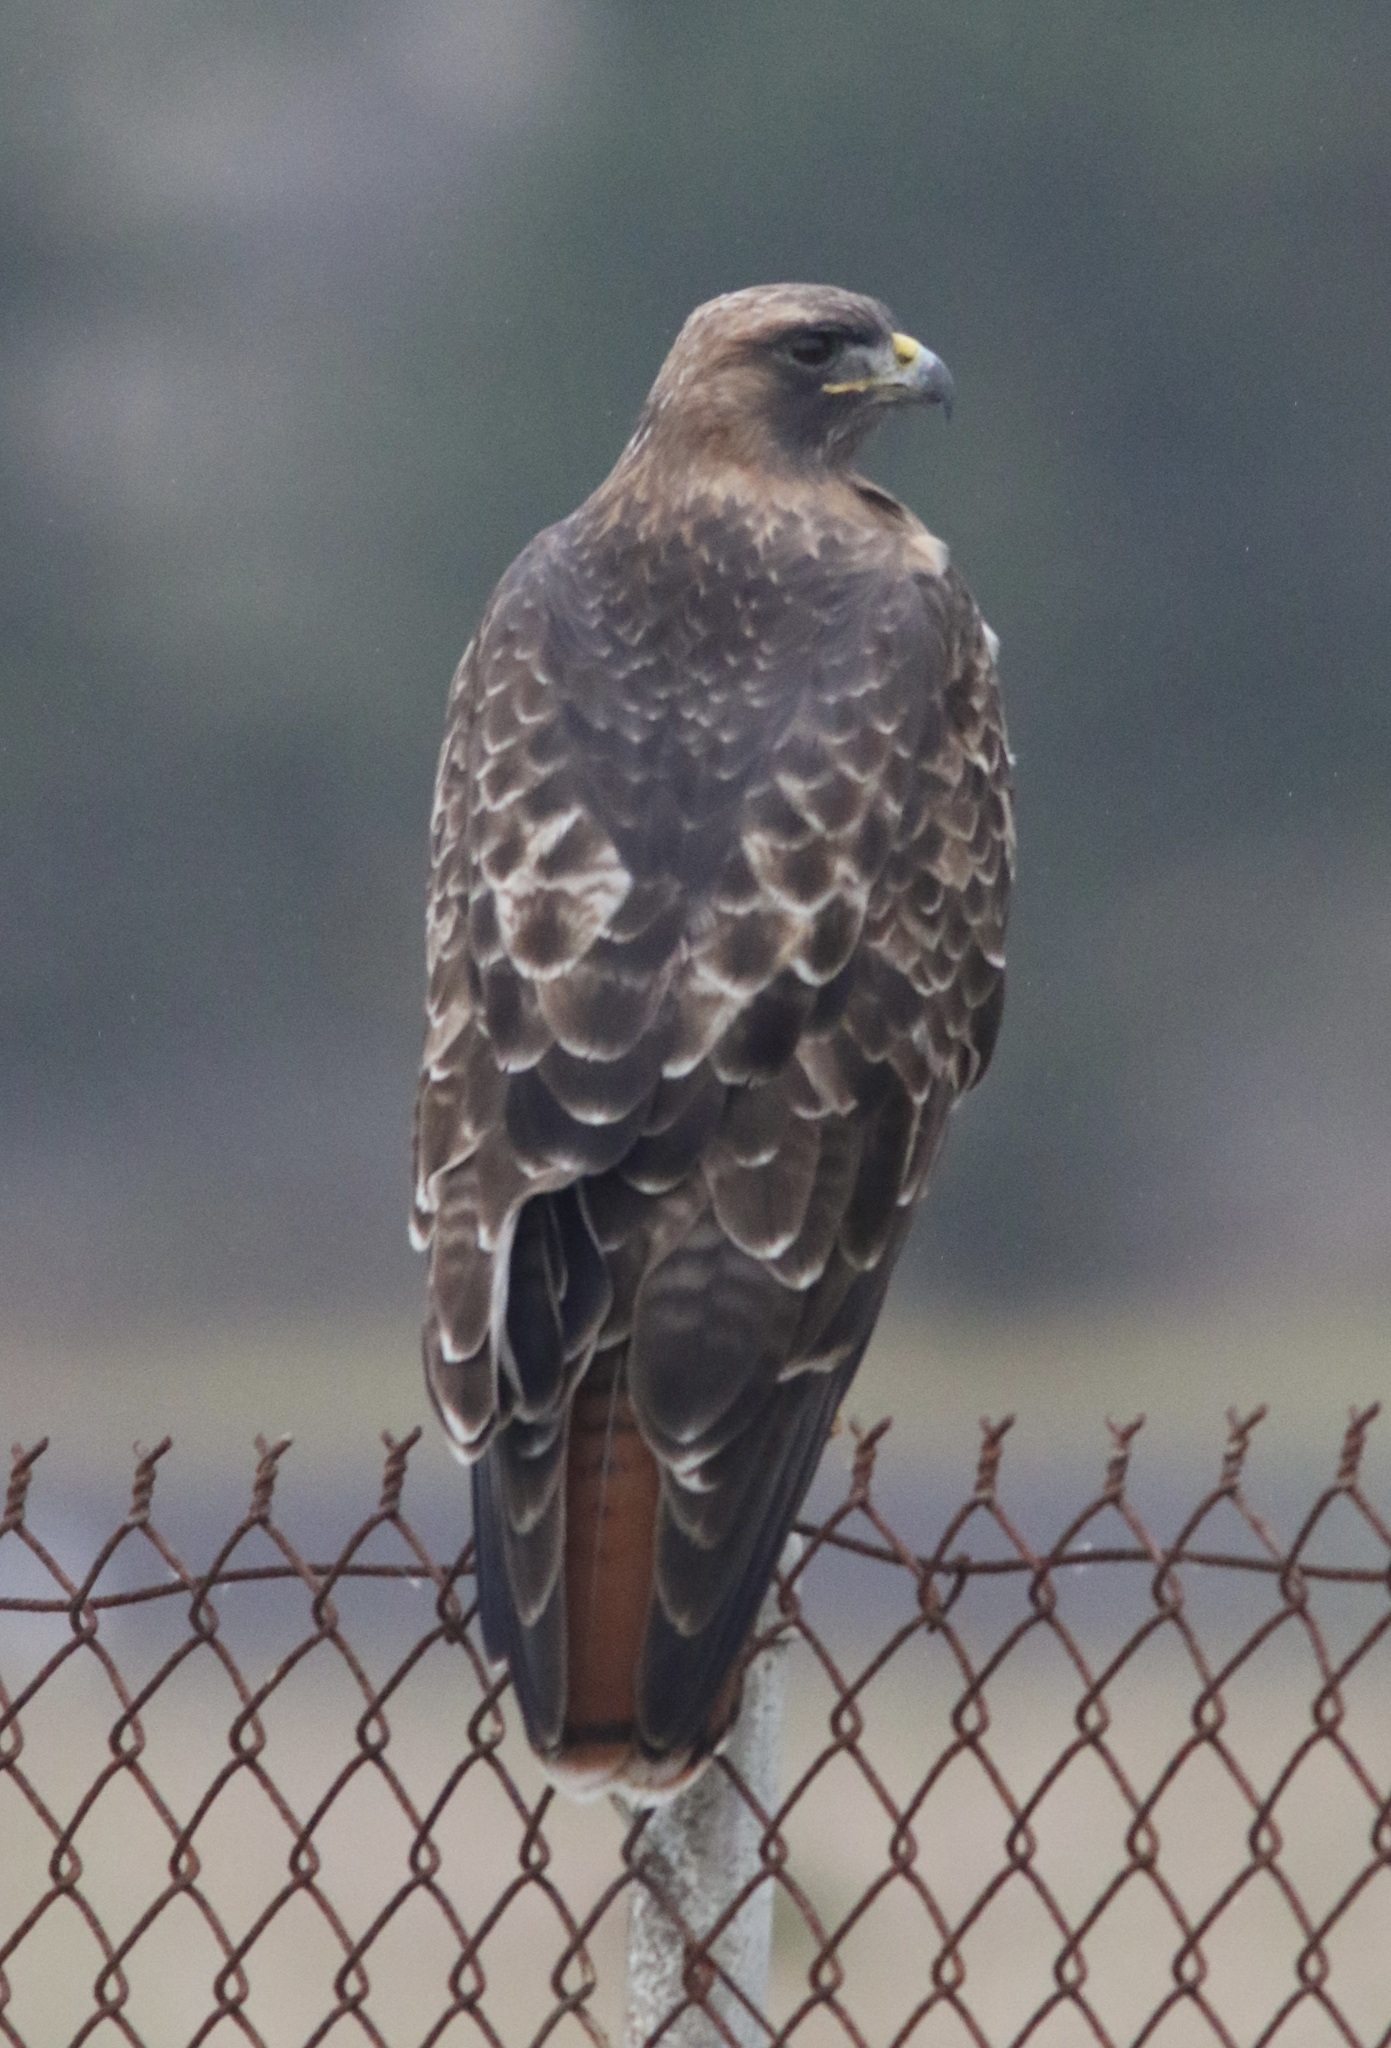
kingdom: Animalia
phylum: Chordata
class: Aves
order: Accipitriformes
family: Accipitridae
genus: Buteo
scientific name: Buteo jamaicensis
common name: Red-tailed hawk
